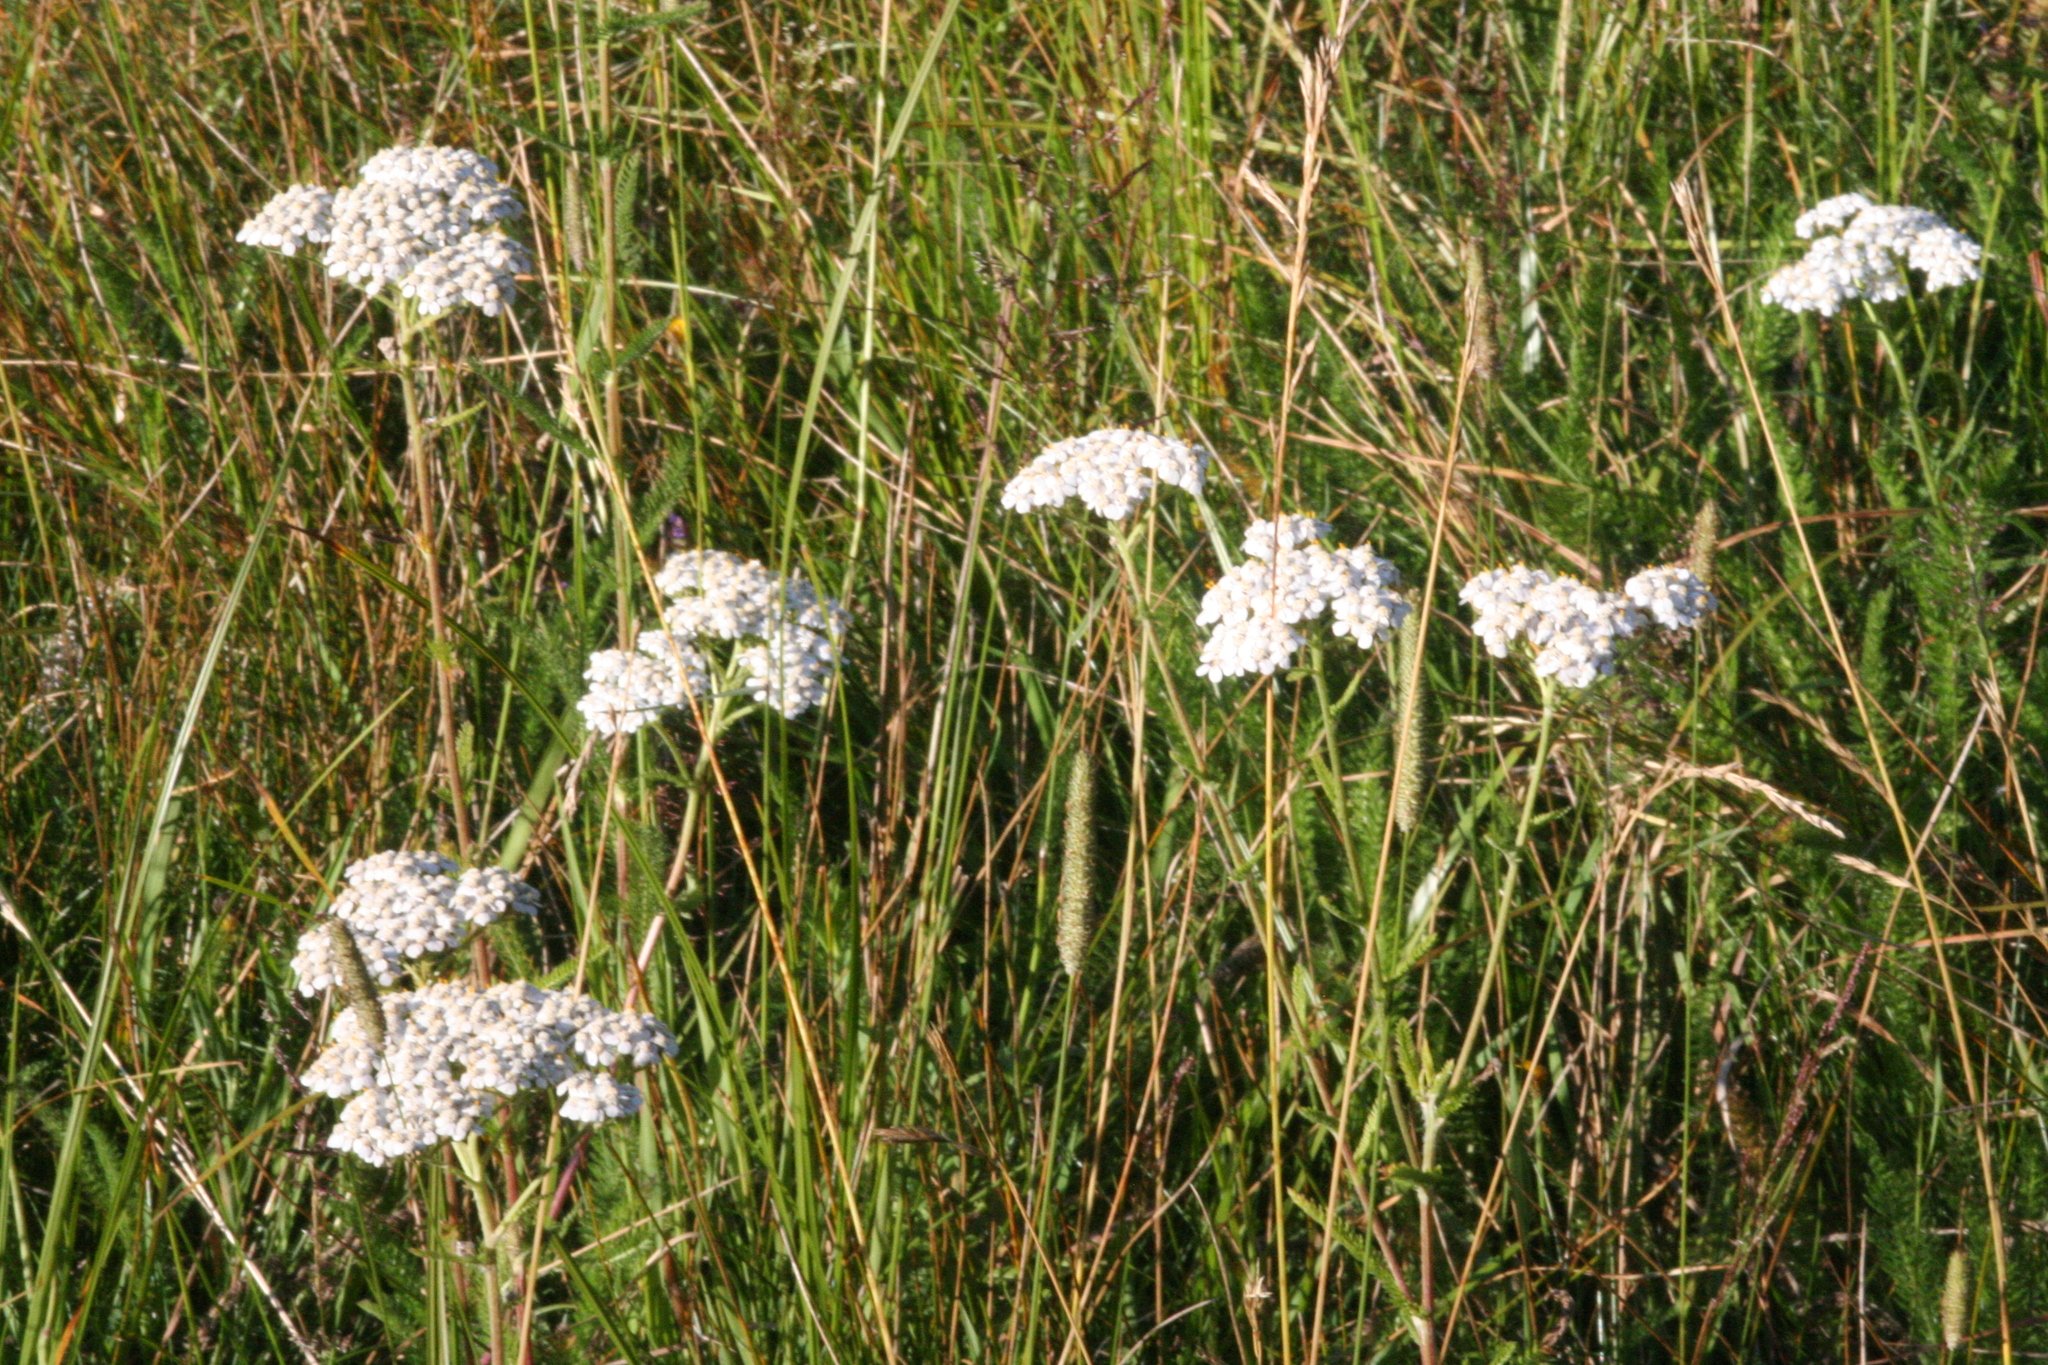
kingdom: Plantae
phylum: Tracheophyta
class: Magnoliopsida
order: Asterales
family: Asteraceae
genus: Achillea
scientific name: Achillea millefolium
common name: Yarrow
